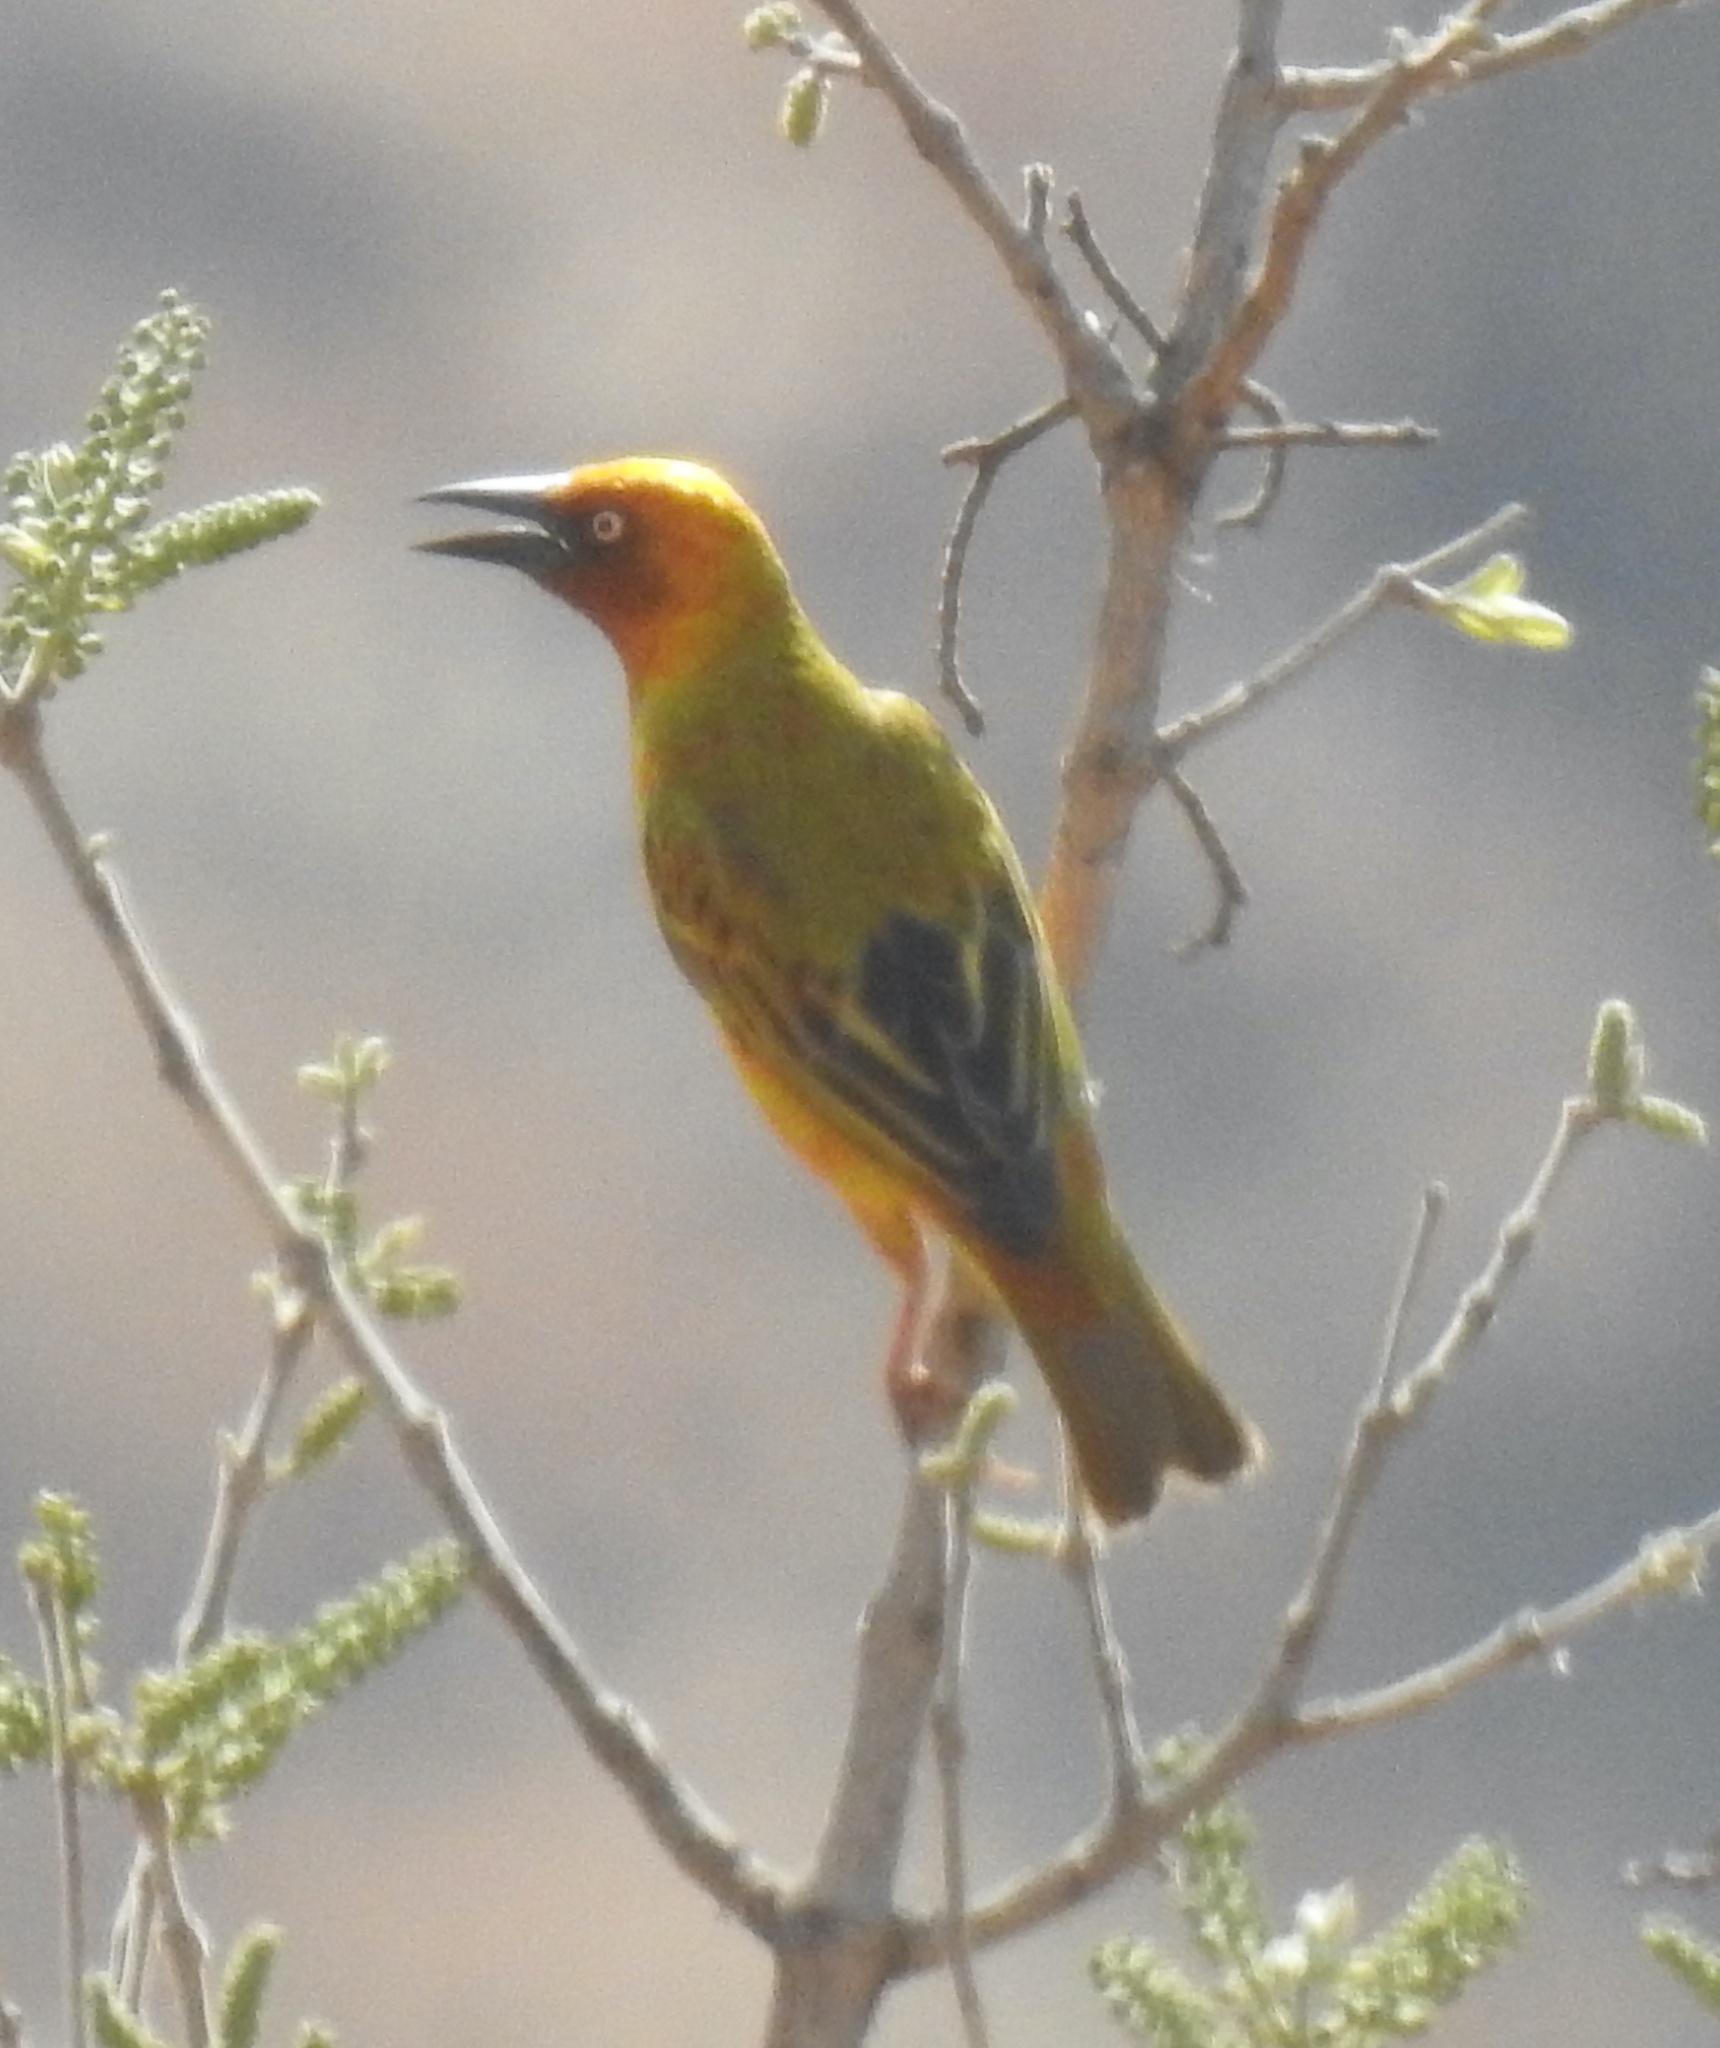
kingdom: Animalia
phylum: Chordata
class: Aves
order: Passeriformes
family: Ploceidae
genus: Ploceus
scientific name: Ploceus capensis
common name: Cape weaver
